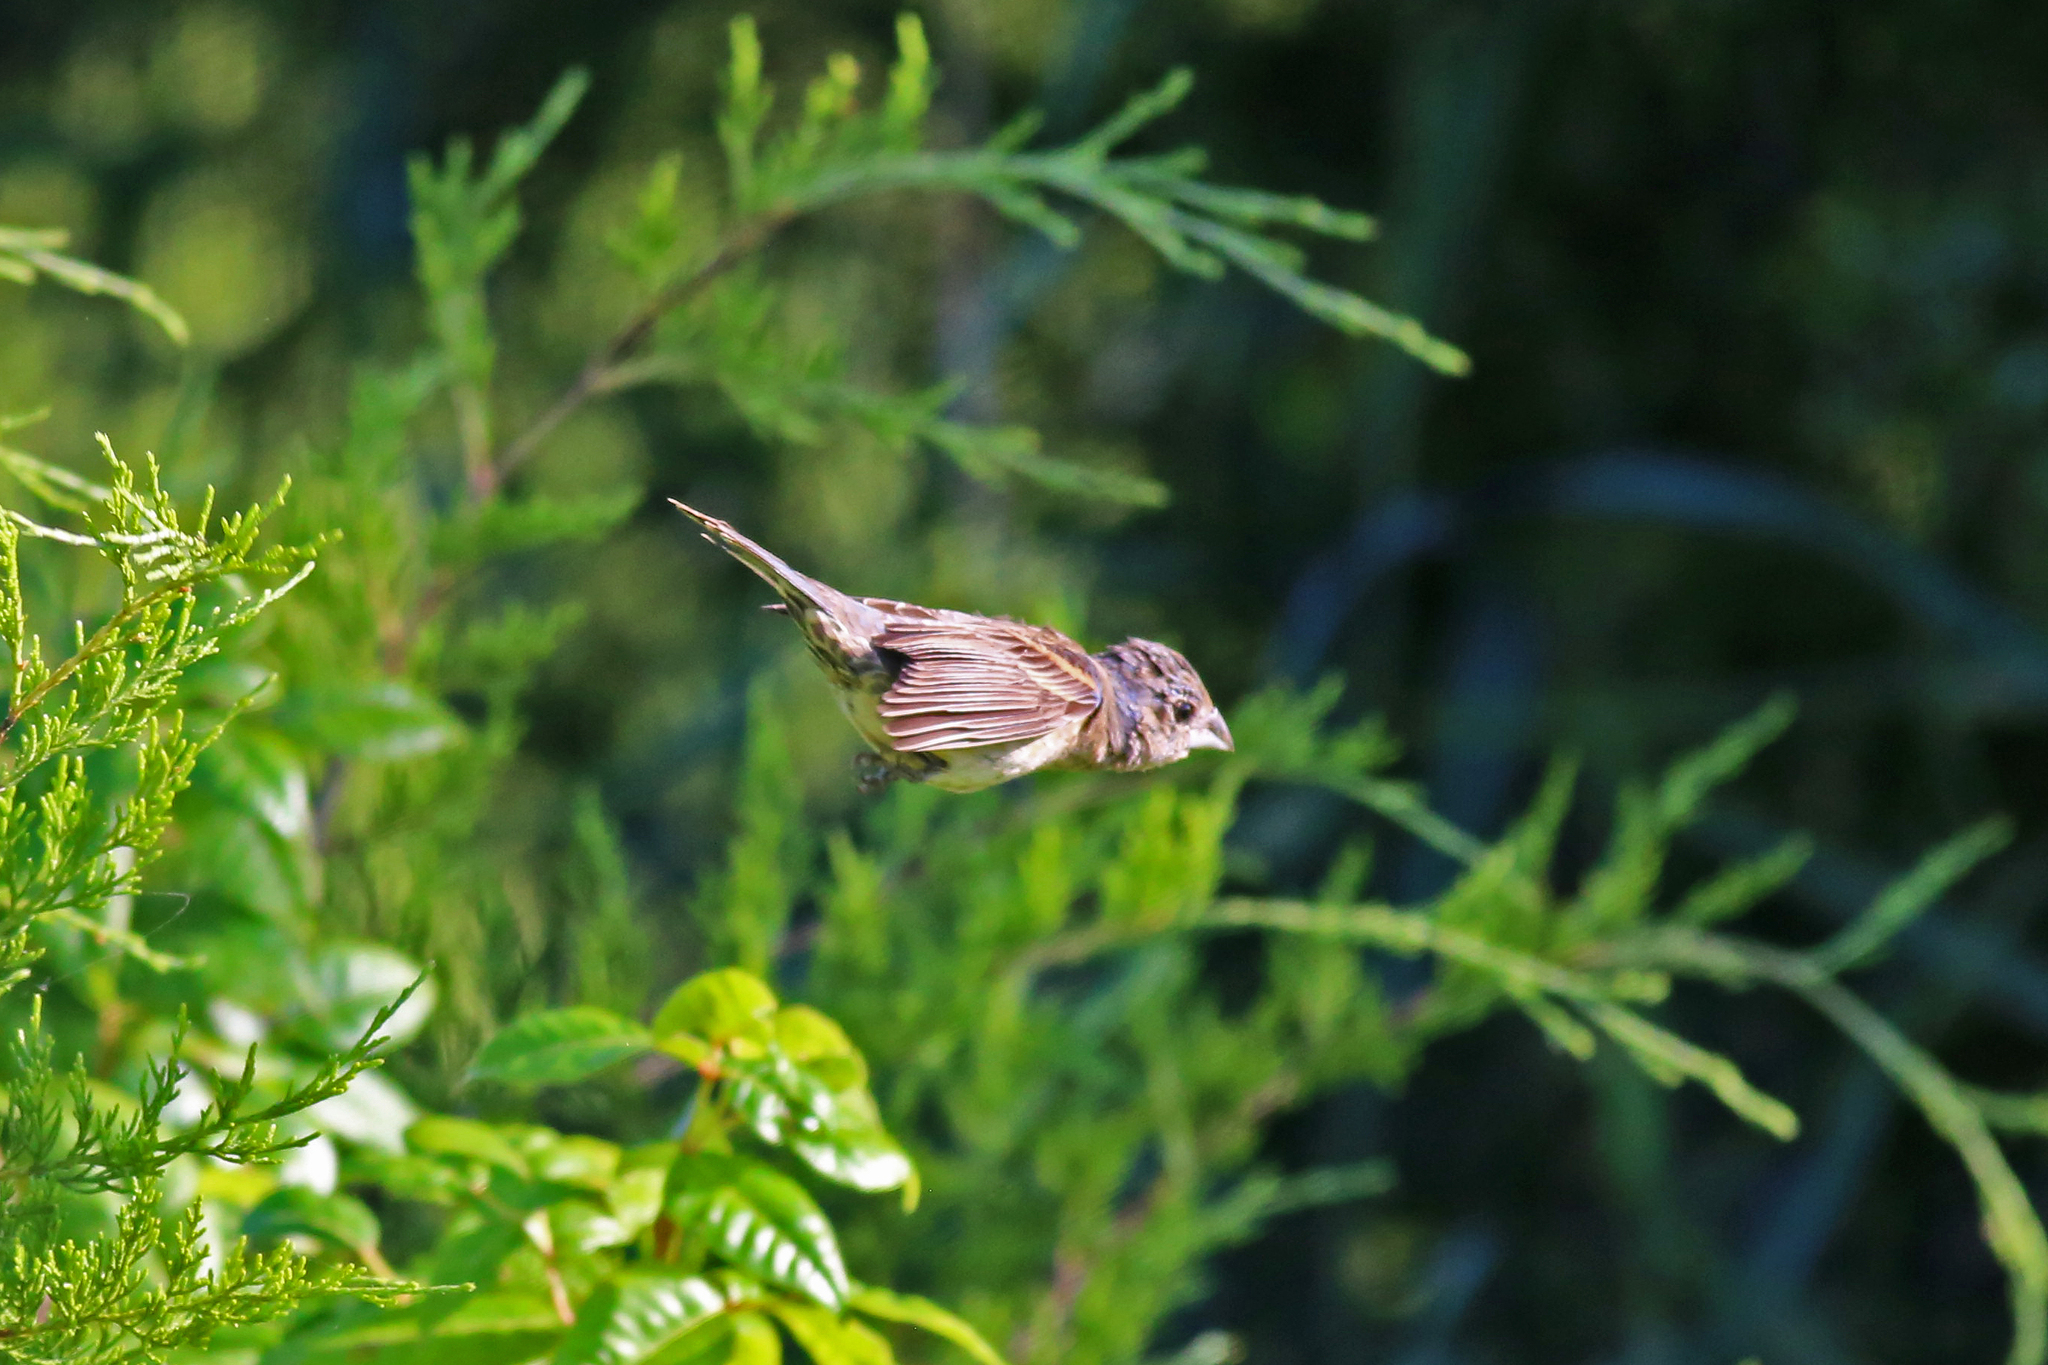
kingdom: Animalia
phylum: Chordata
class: Aves
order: Passeriformes
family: Cardinalidae
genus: Passerina
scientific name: Passerina caerulea
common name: Blue grosbeak
